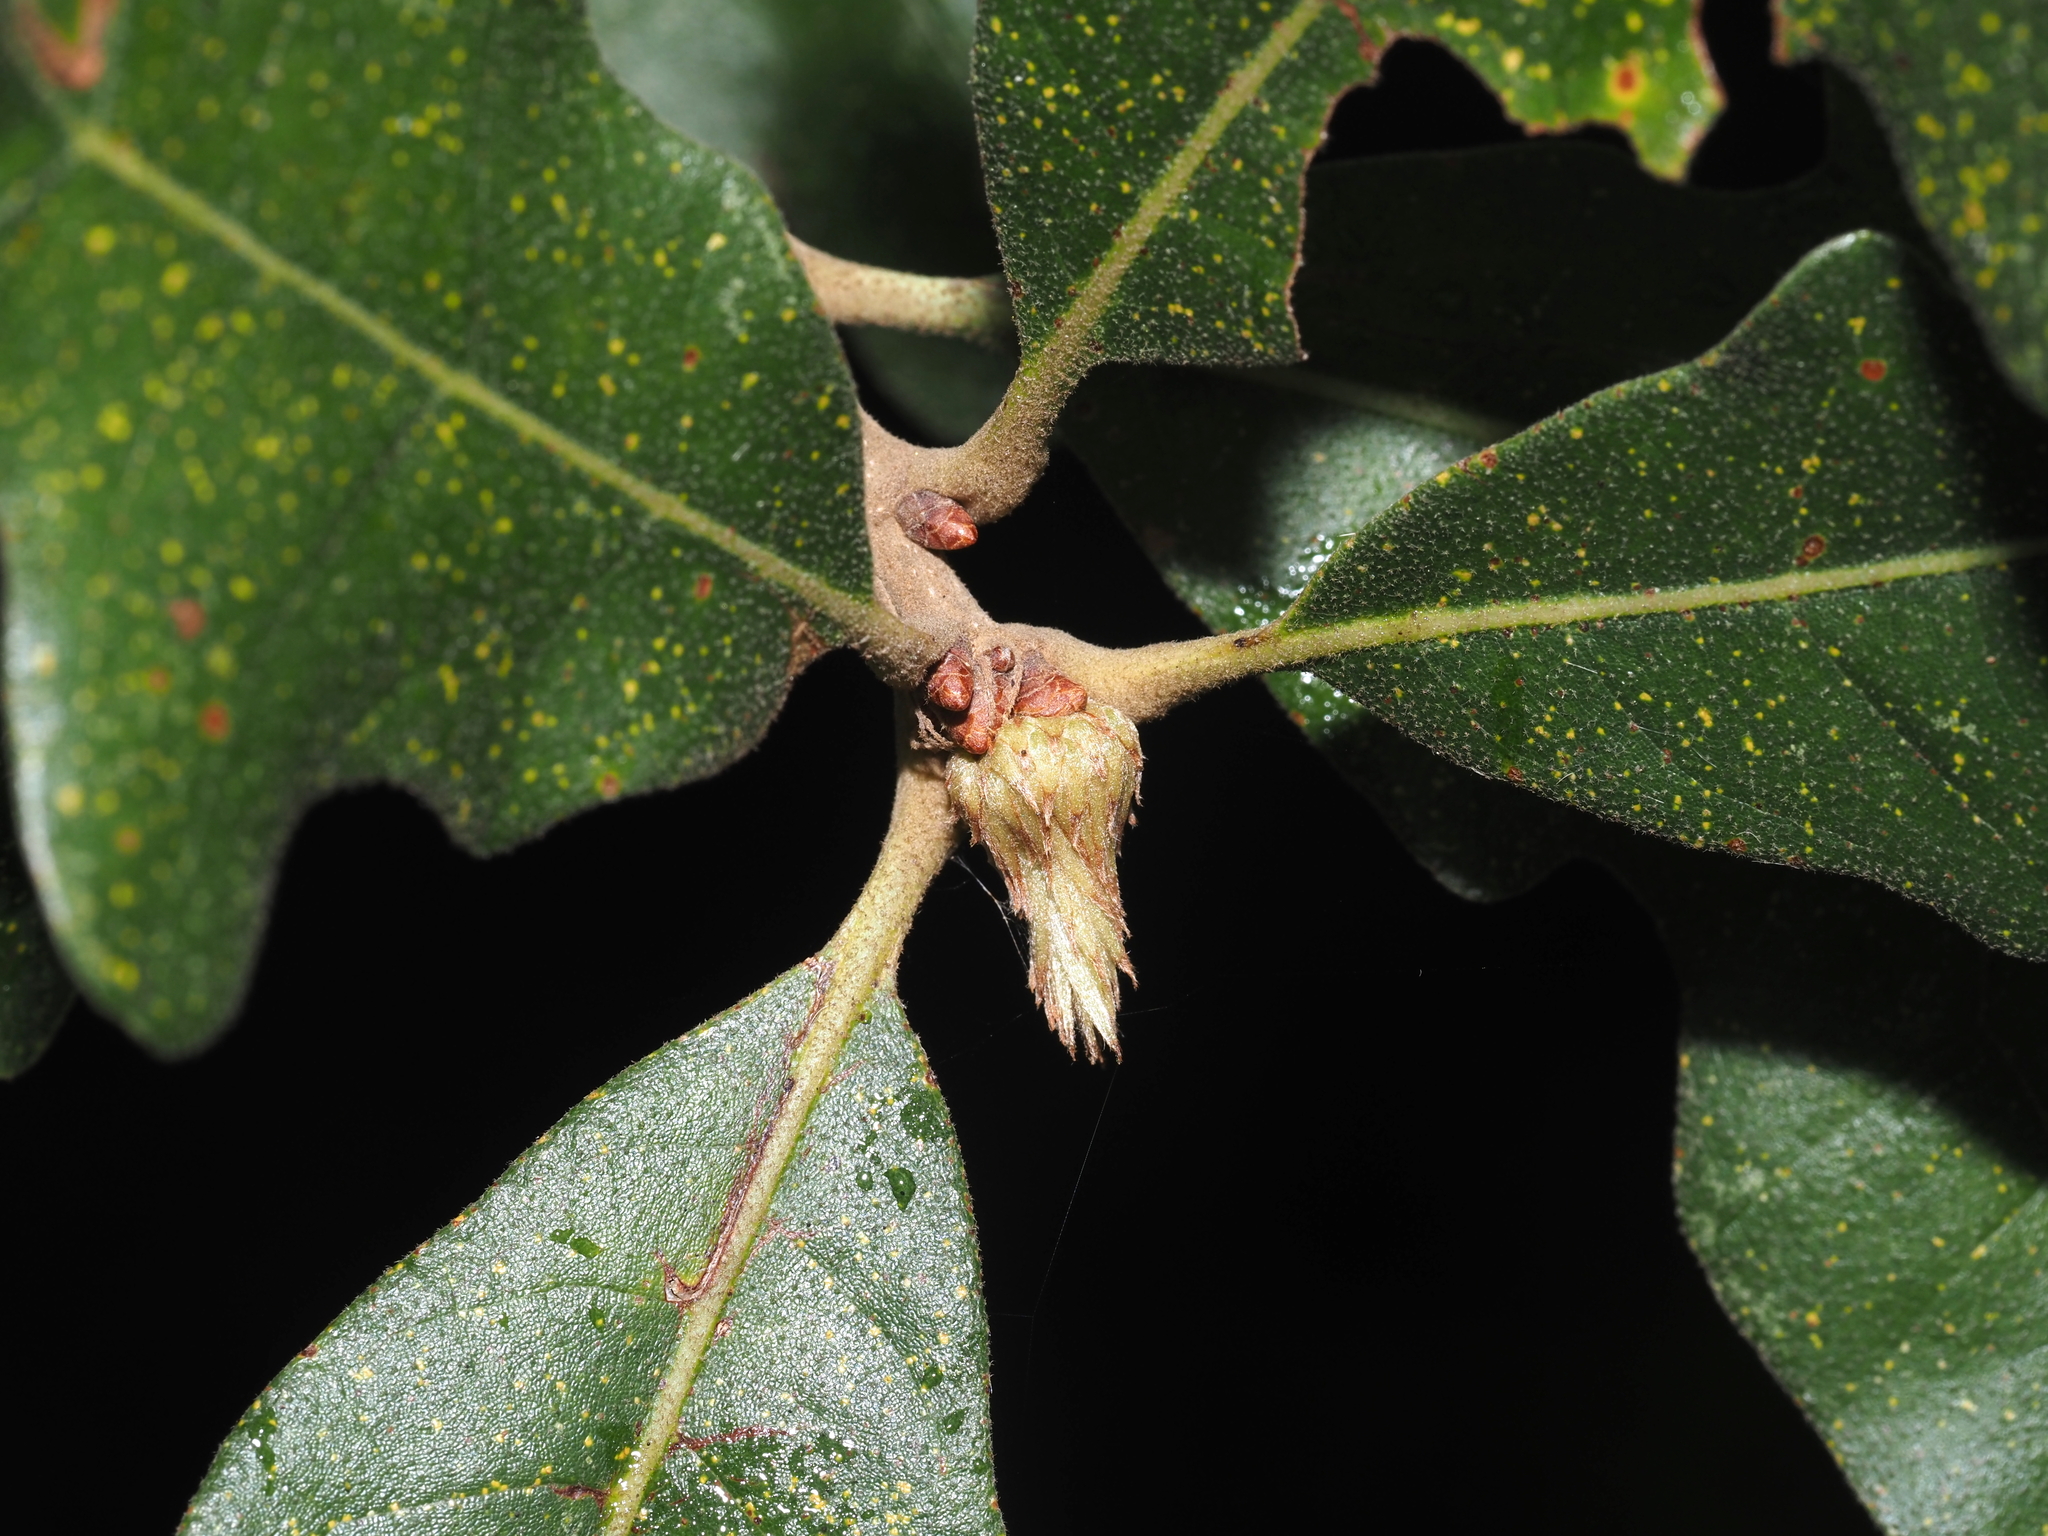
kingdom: Animalia
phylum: Arthropoda
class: Insecta
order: Hymenoptera
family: Cynipidae
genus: Andricus
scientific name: Andricus
